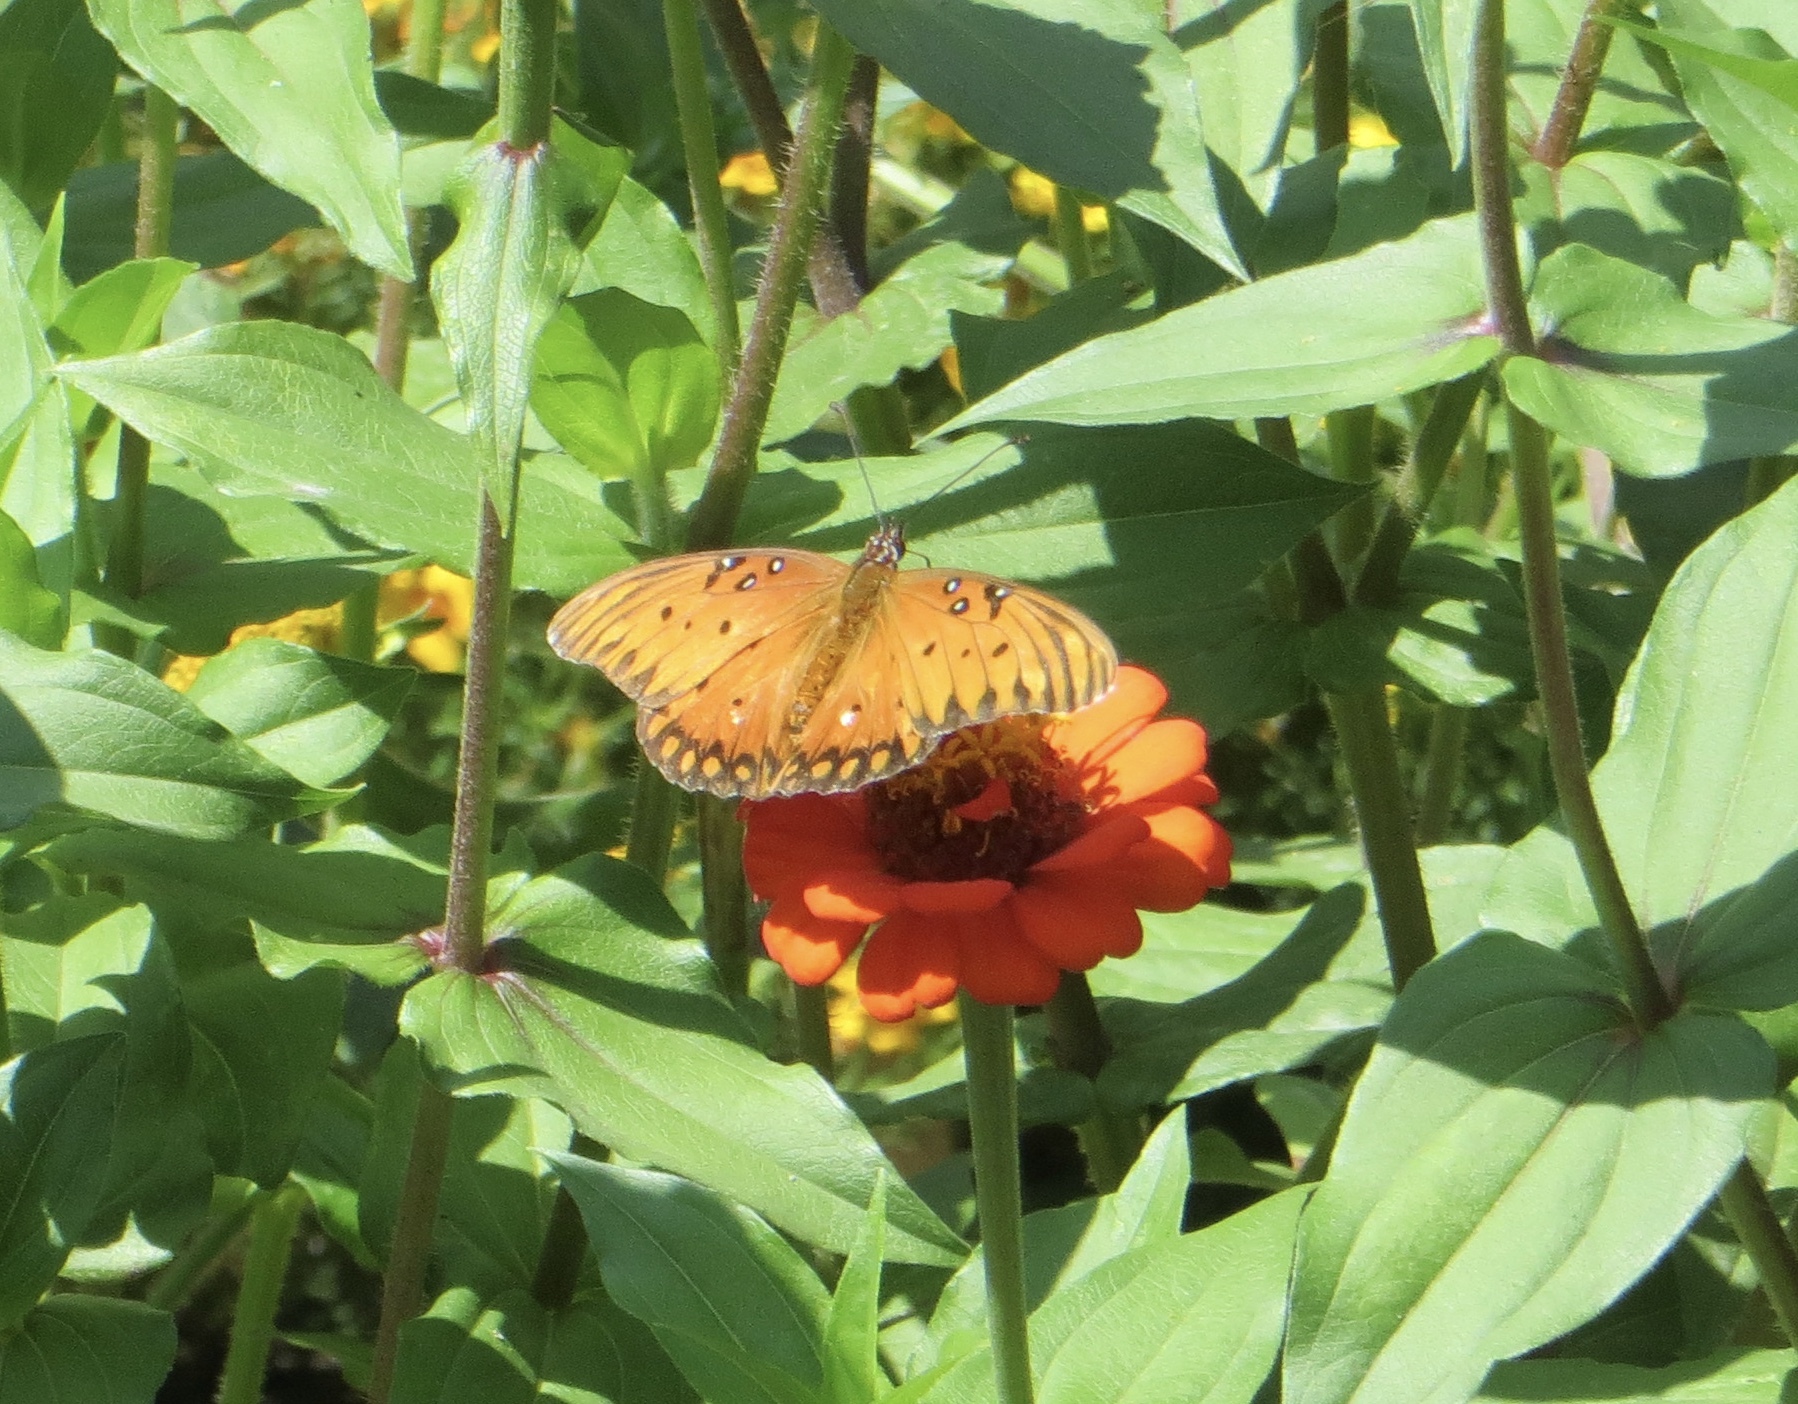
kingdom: Animalia
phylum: Arthropoda
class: Insecta
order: Lepidoptera
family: Nymphalidae
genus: Dione
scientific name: Dione vanillae
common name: Gulf fritillary
